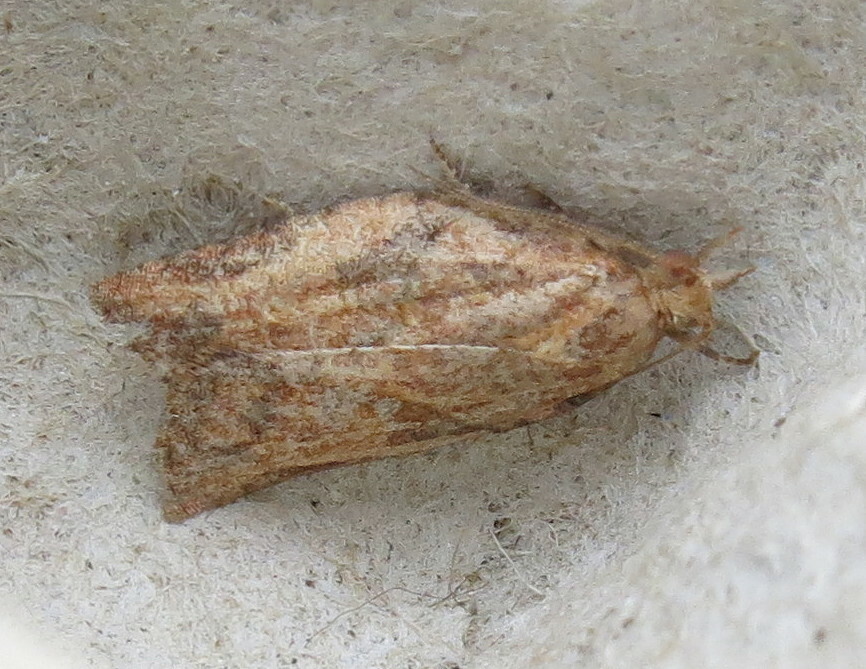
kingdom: Animalia
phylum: Arthropoda
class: Insecta
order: Lepidoptera
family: Tortricidae
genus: Epiphyas
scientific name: Epiphyas postvittana
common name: Light brown apple moth
